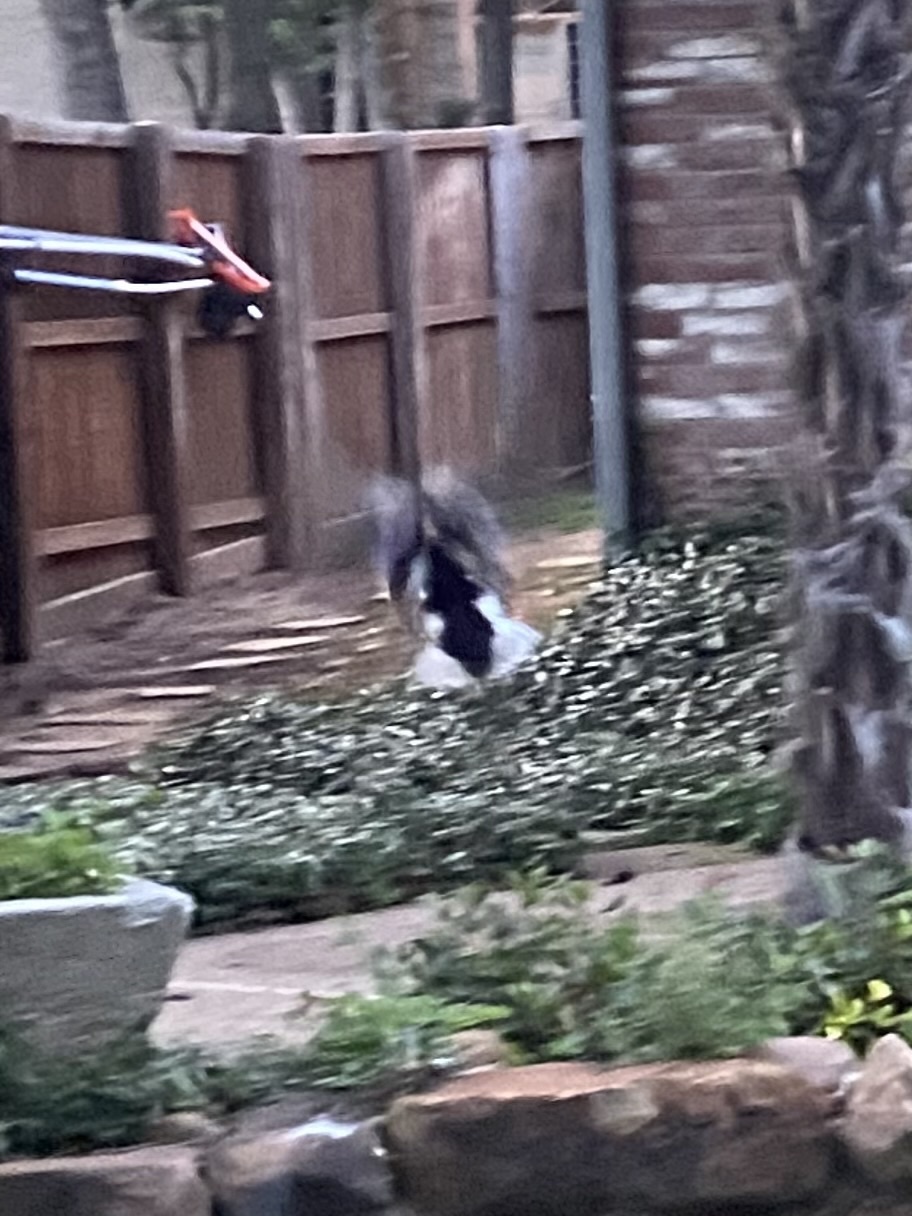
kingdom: Animalia
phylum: Chordata
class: Aves
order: Anseriformes
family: Anatidae
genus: Anas
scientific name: Anas platyrhynchos
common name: Mallard
